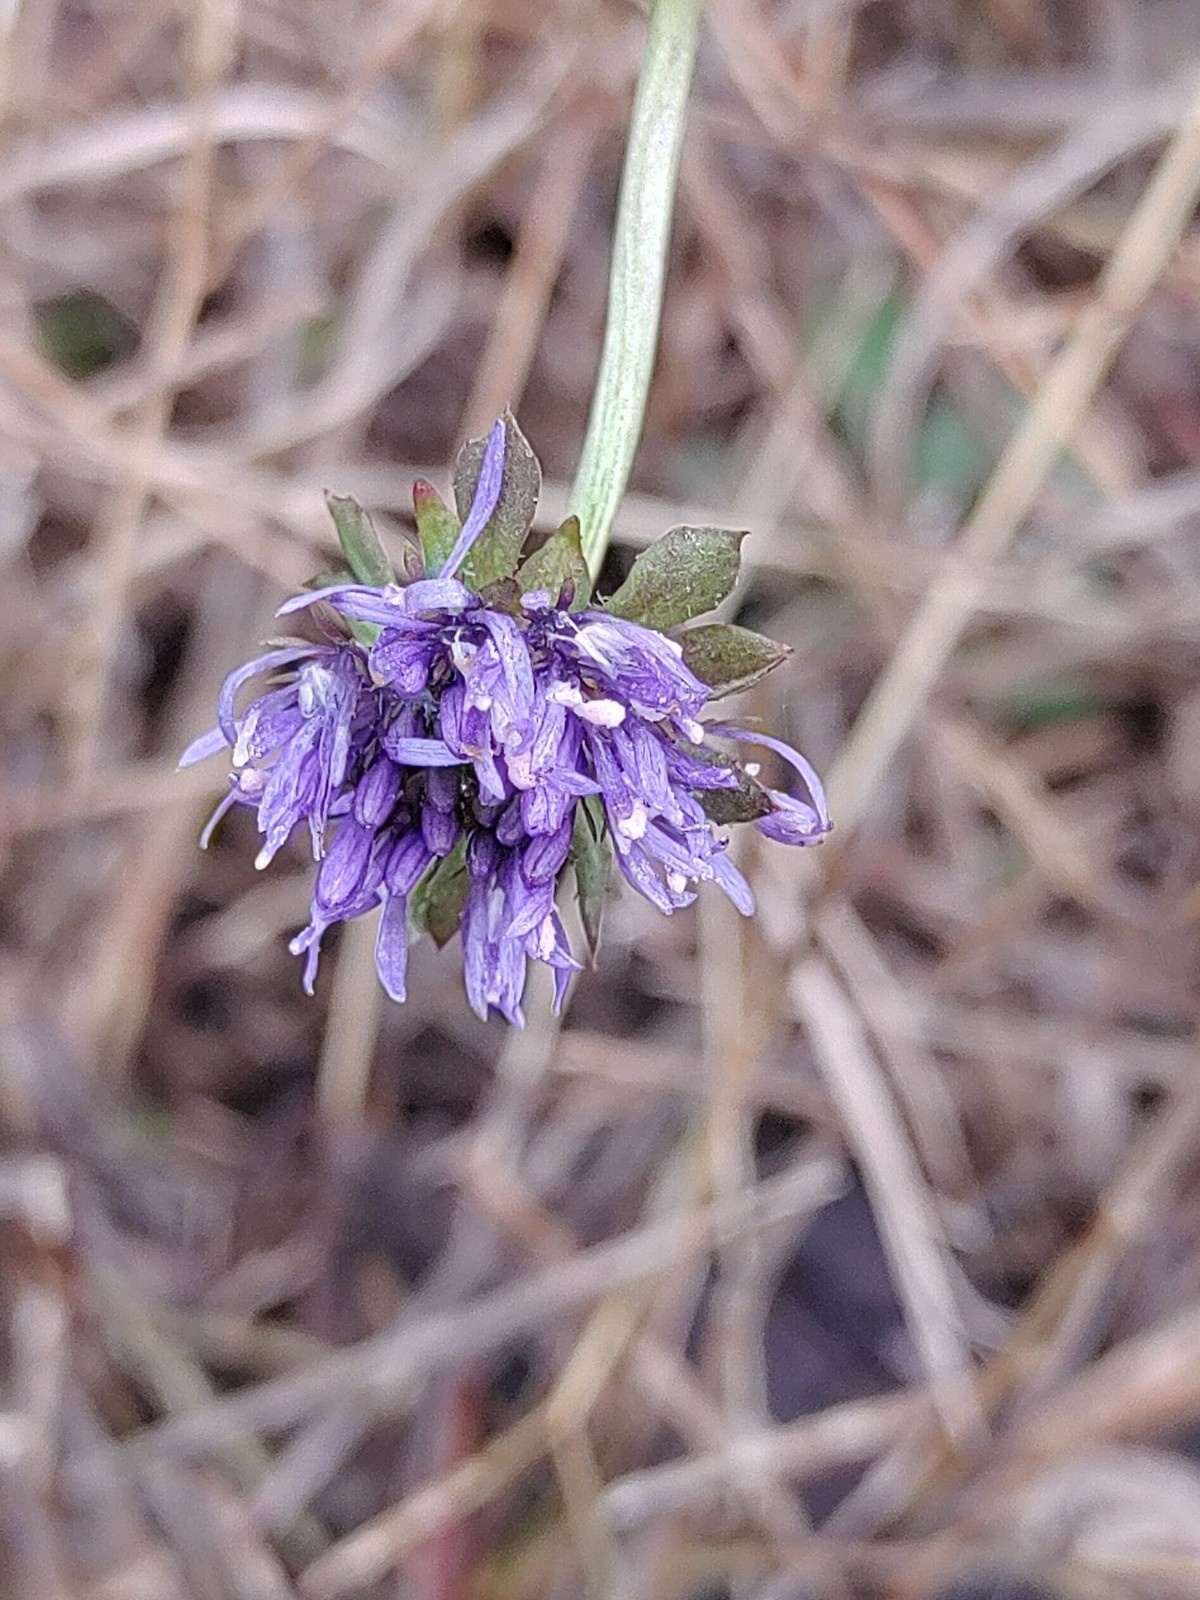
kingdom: Plantae
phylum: Tracheophyta
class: Magnoliopsida
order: Asterales
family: Campanulaceae
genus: Jasione
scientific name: Jasione montana
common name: Sheep's-bit
